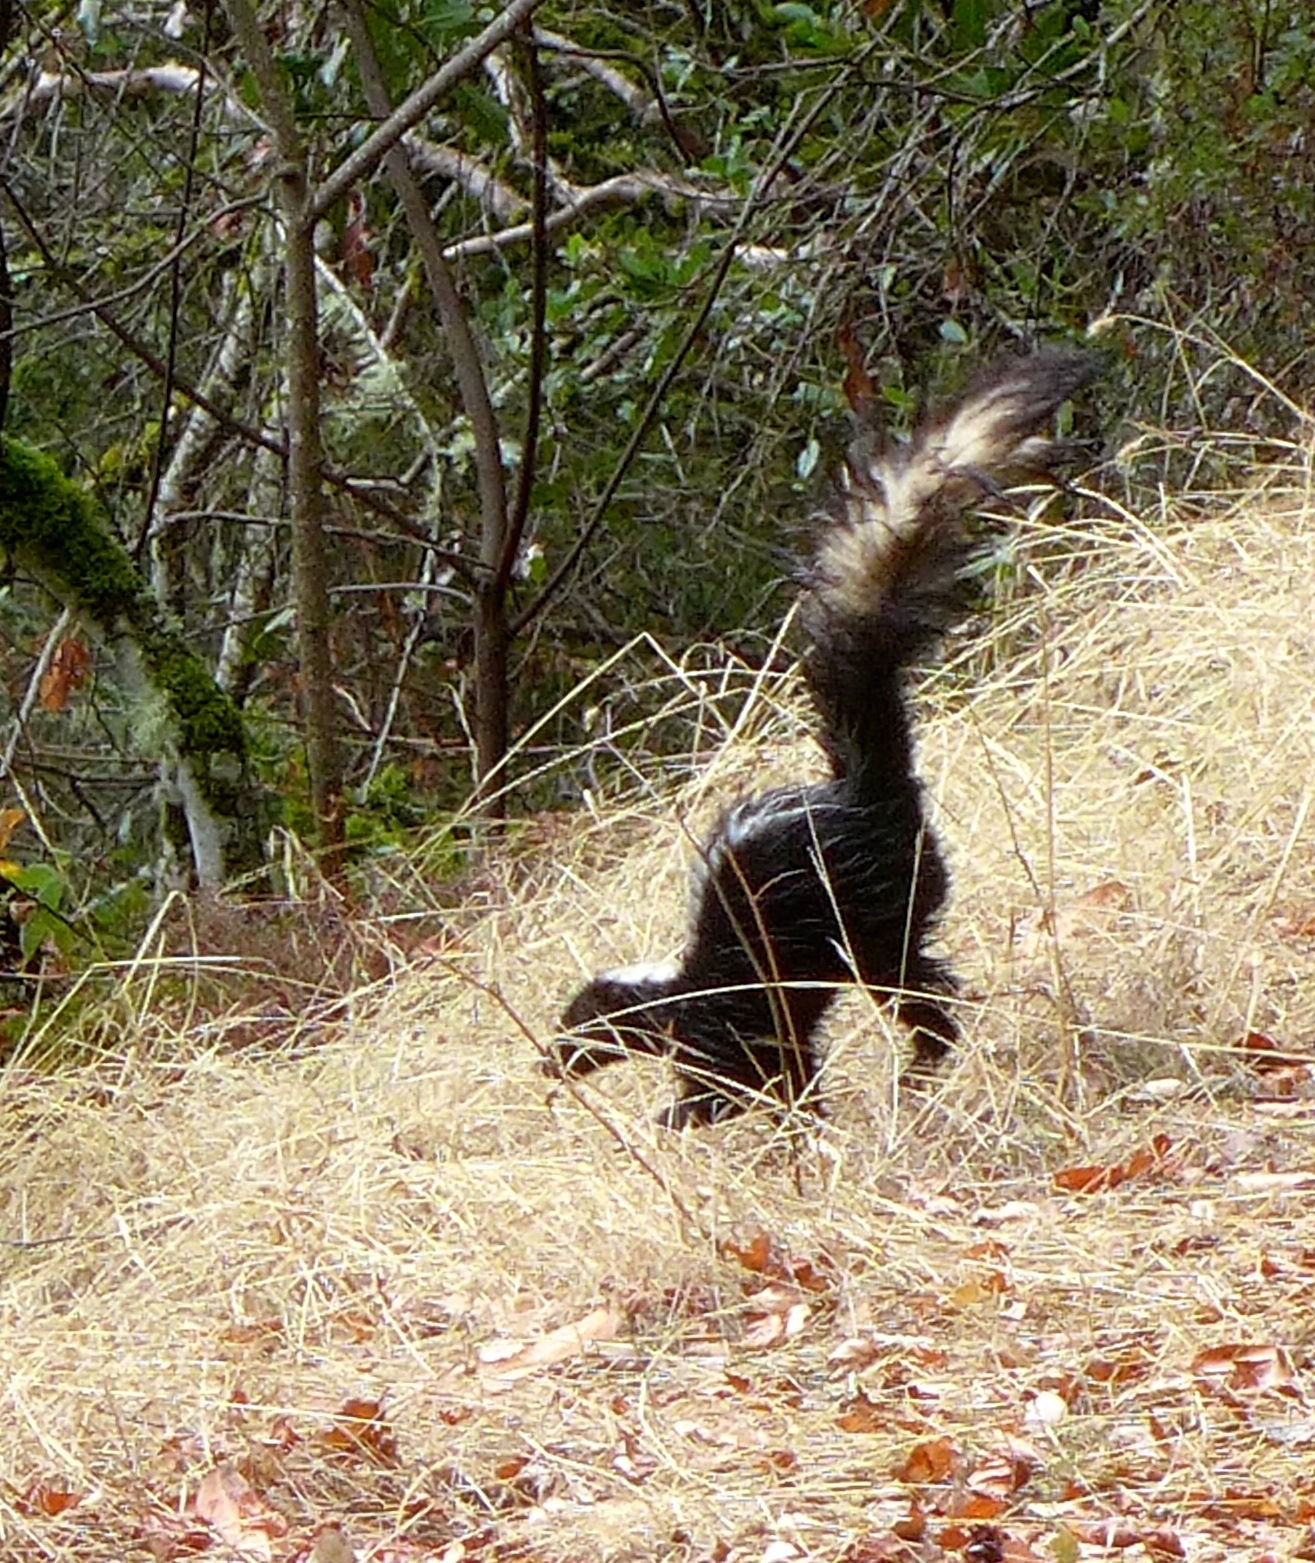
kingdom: Animalia
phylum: Chordata
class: Mammalia
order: Carnivora
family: Mephitidae
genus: Mephitis
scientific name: Mephitis mephitis
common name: Striped skunk
